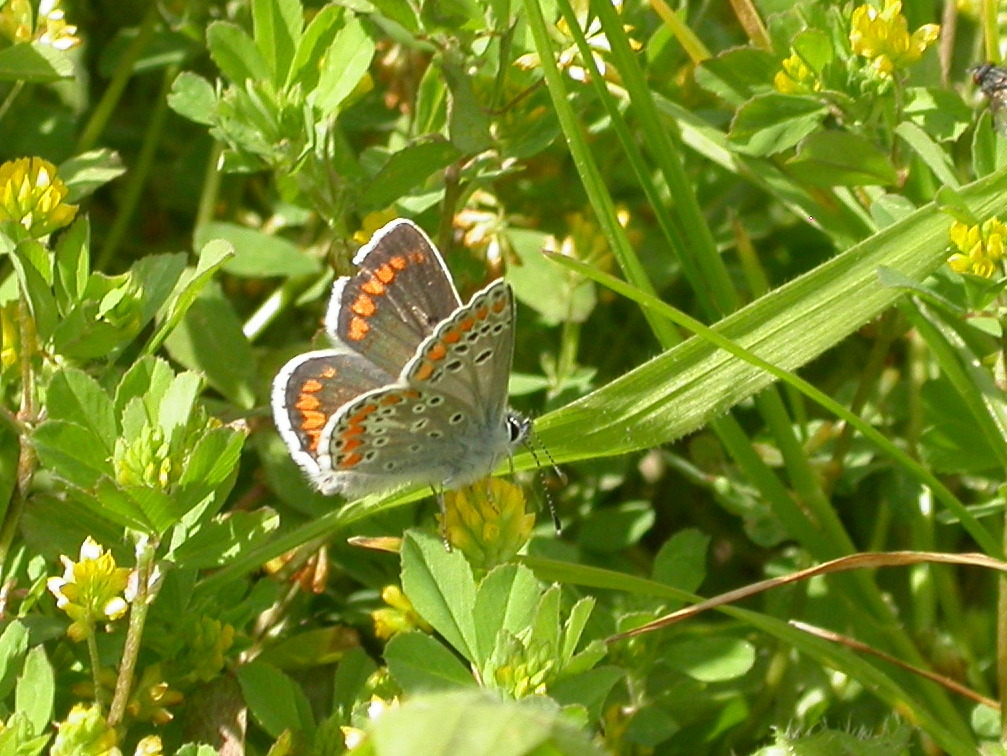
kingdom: Animalia
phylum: Arthropoda
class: Insecta
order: Lepidoptera
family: Lycaenidae
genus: Aricia
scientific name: Aricia agestis
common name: Brown argus
